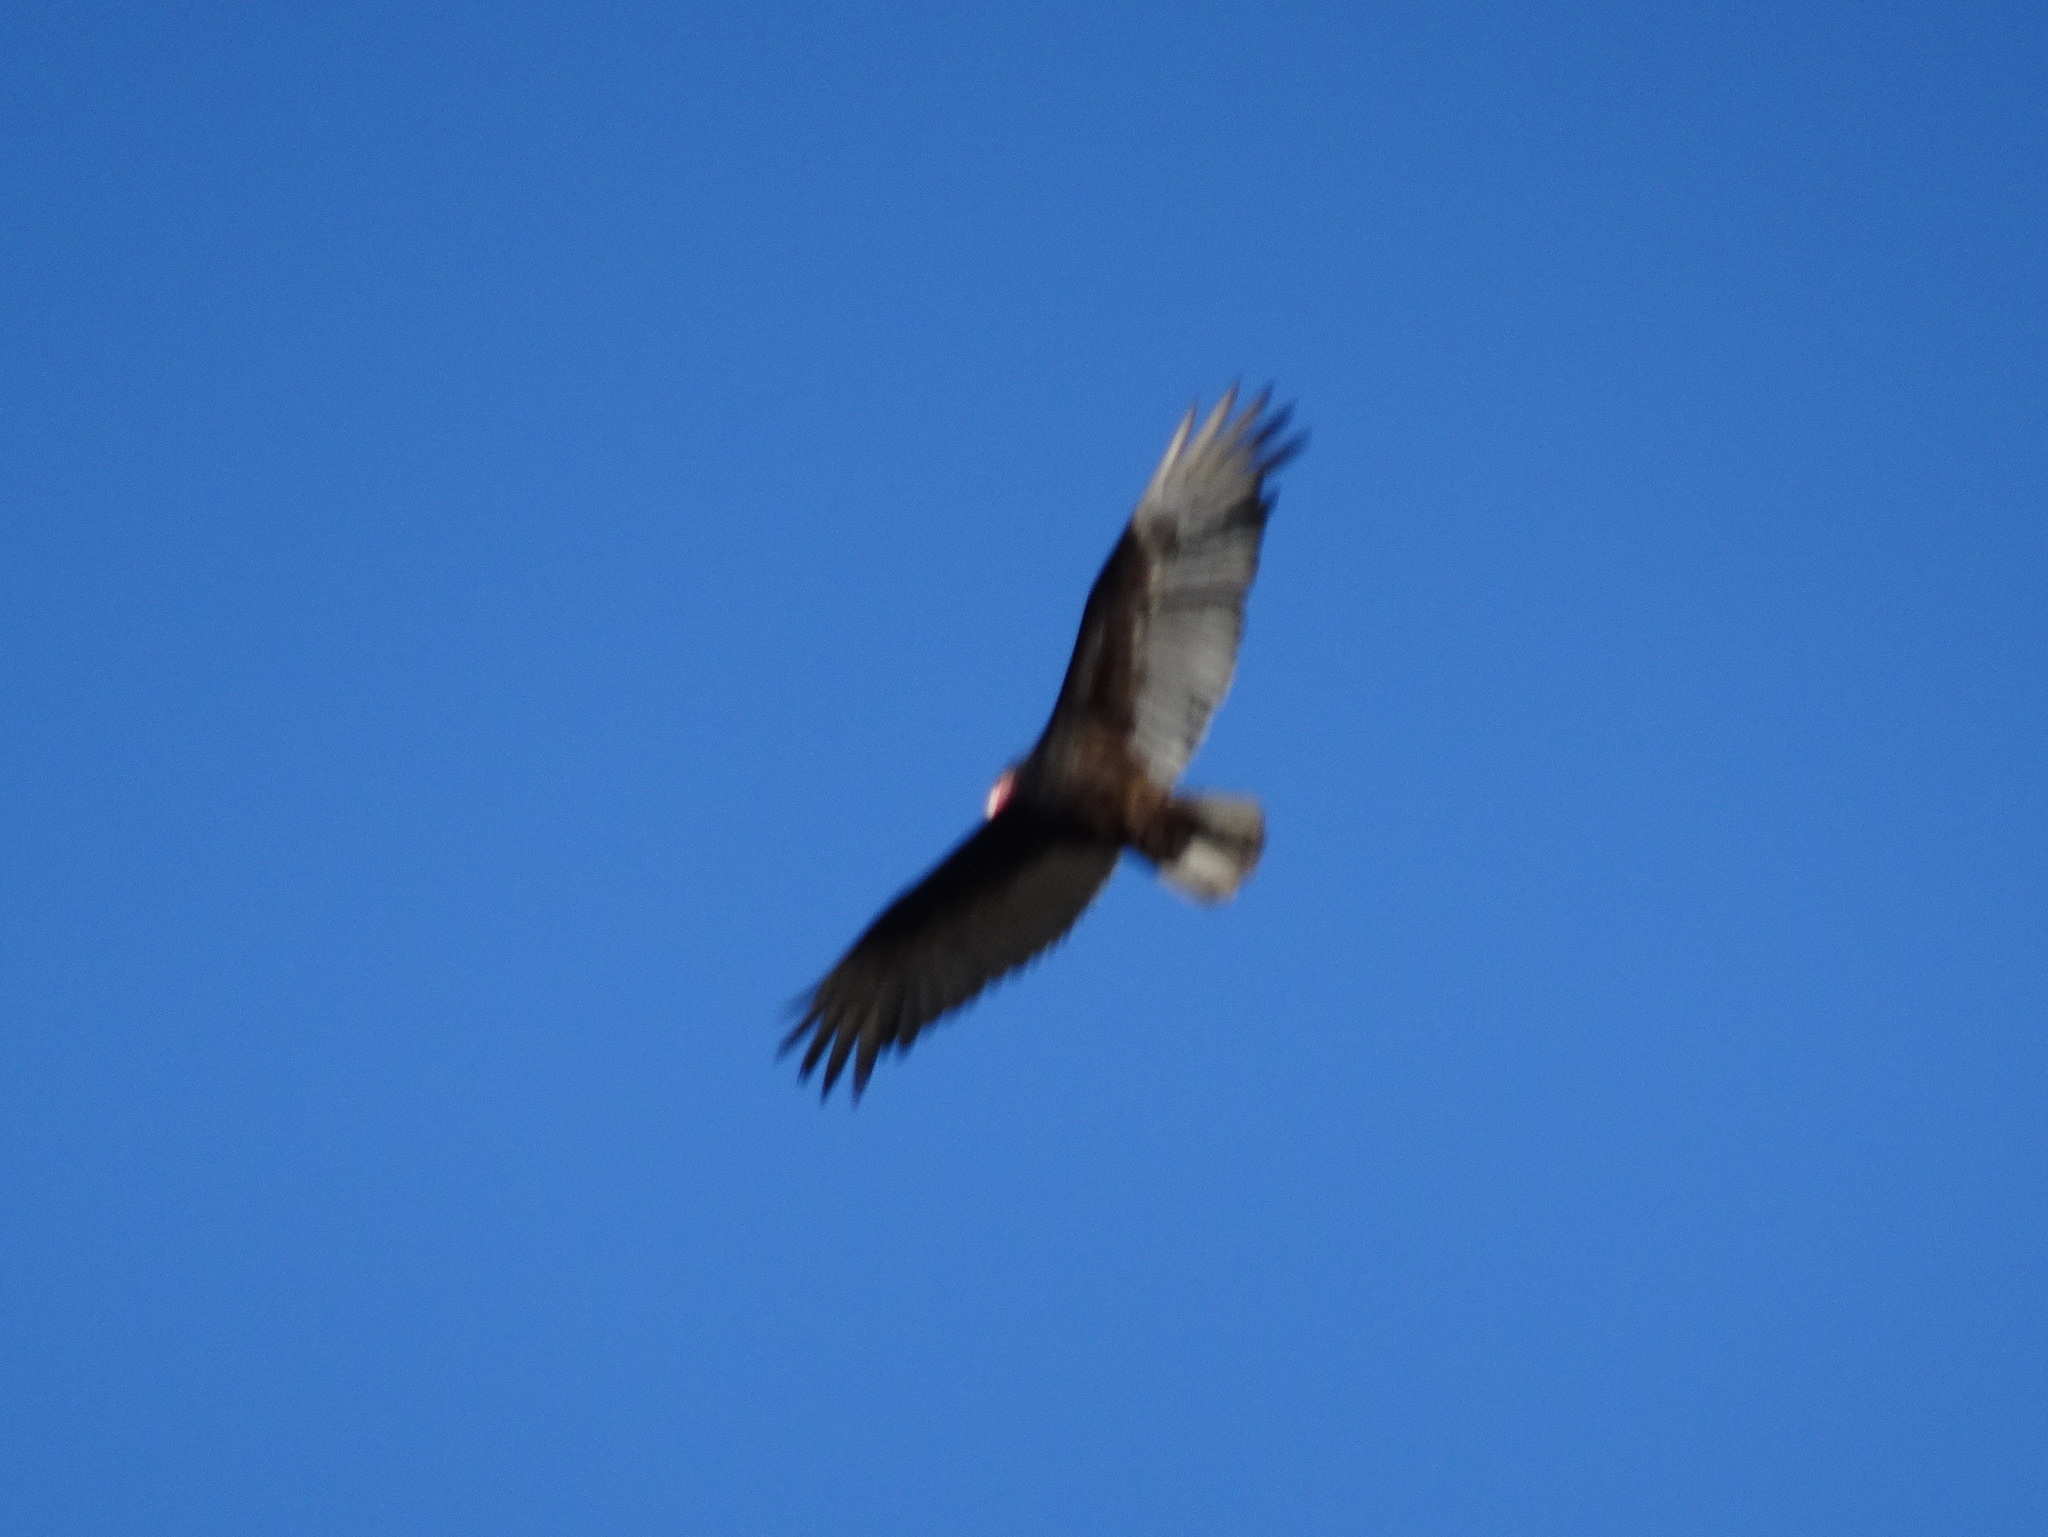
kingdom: Animalia
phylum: Chordata
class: Aves
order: Accipitriformes
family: Cathartidae
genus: Cathartes
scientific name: Cathartes aura
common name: Turkey vulture
